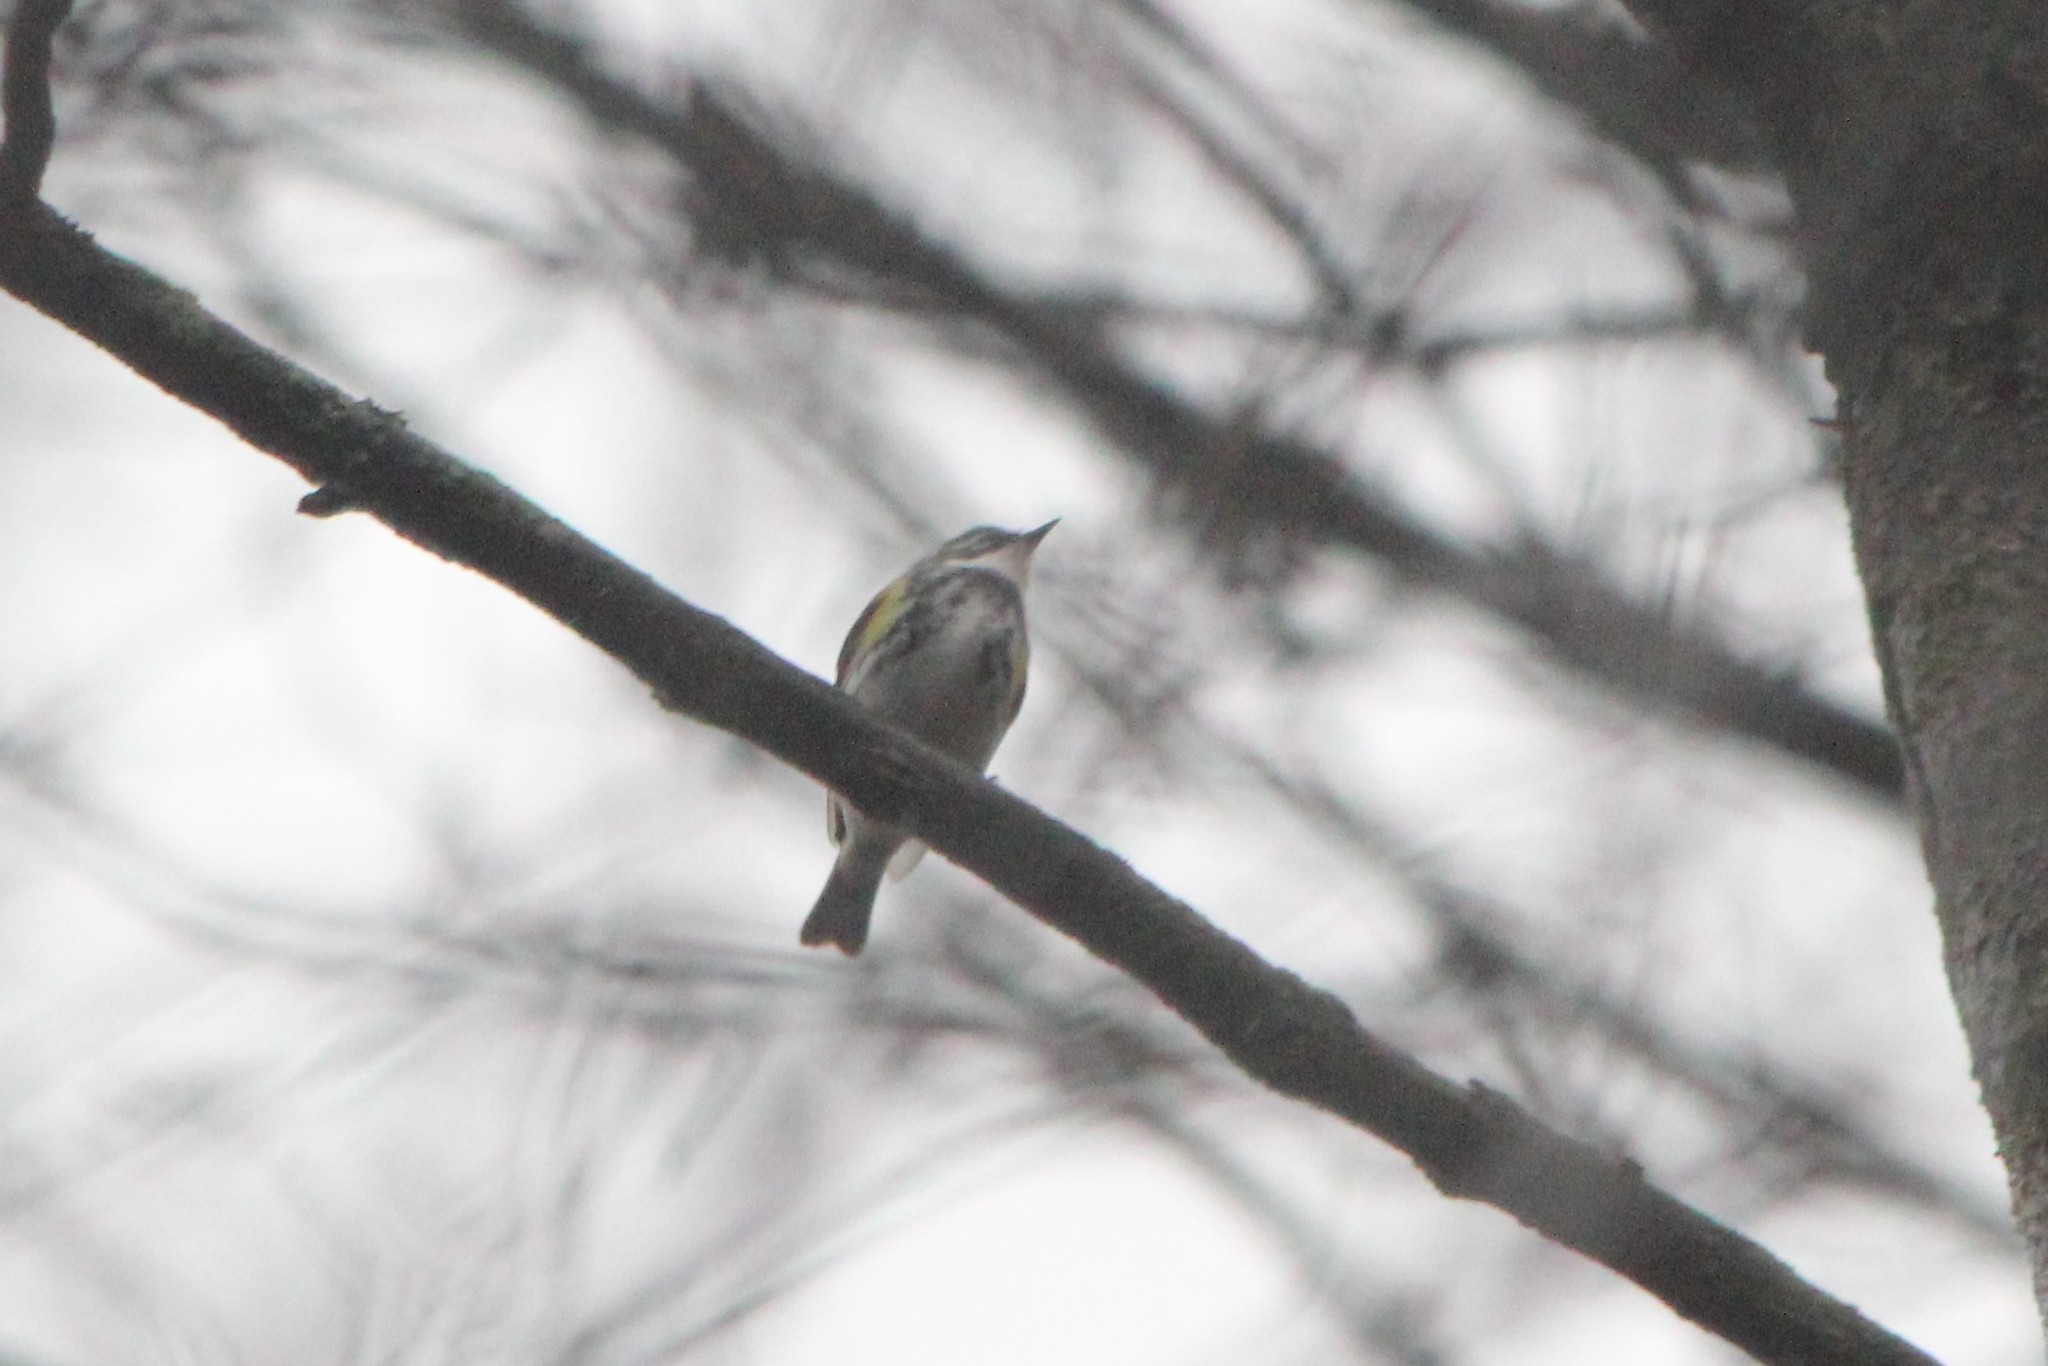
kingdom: Animalia
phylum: Chordata
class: Aves
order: Passeriformes
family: Parulidae
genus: Setophaga
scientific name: Setophaga coronata
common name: Myrtle warbler
